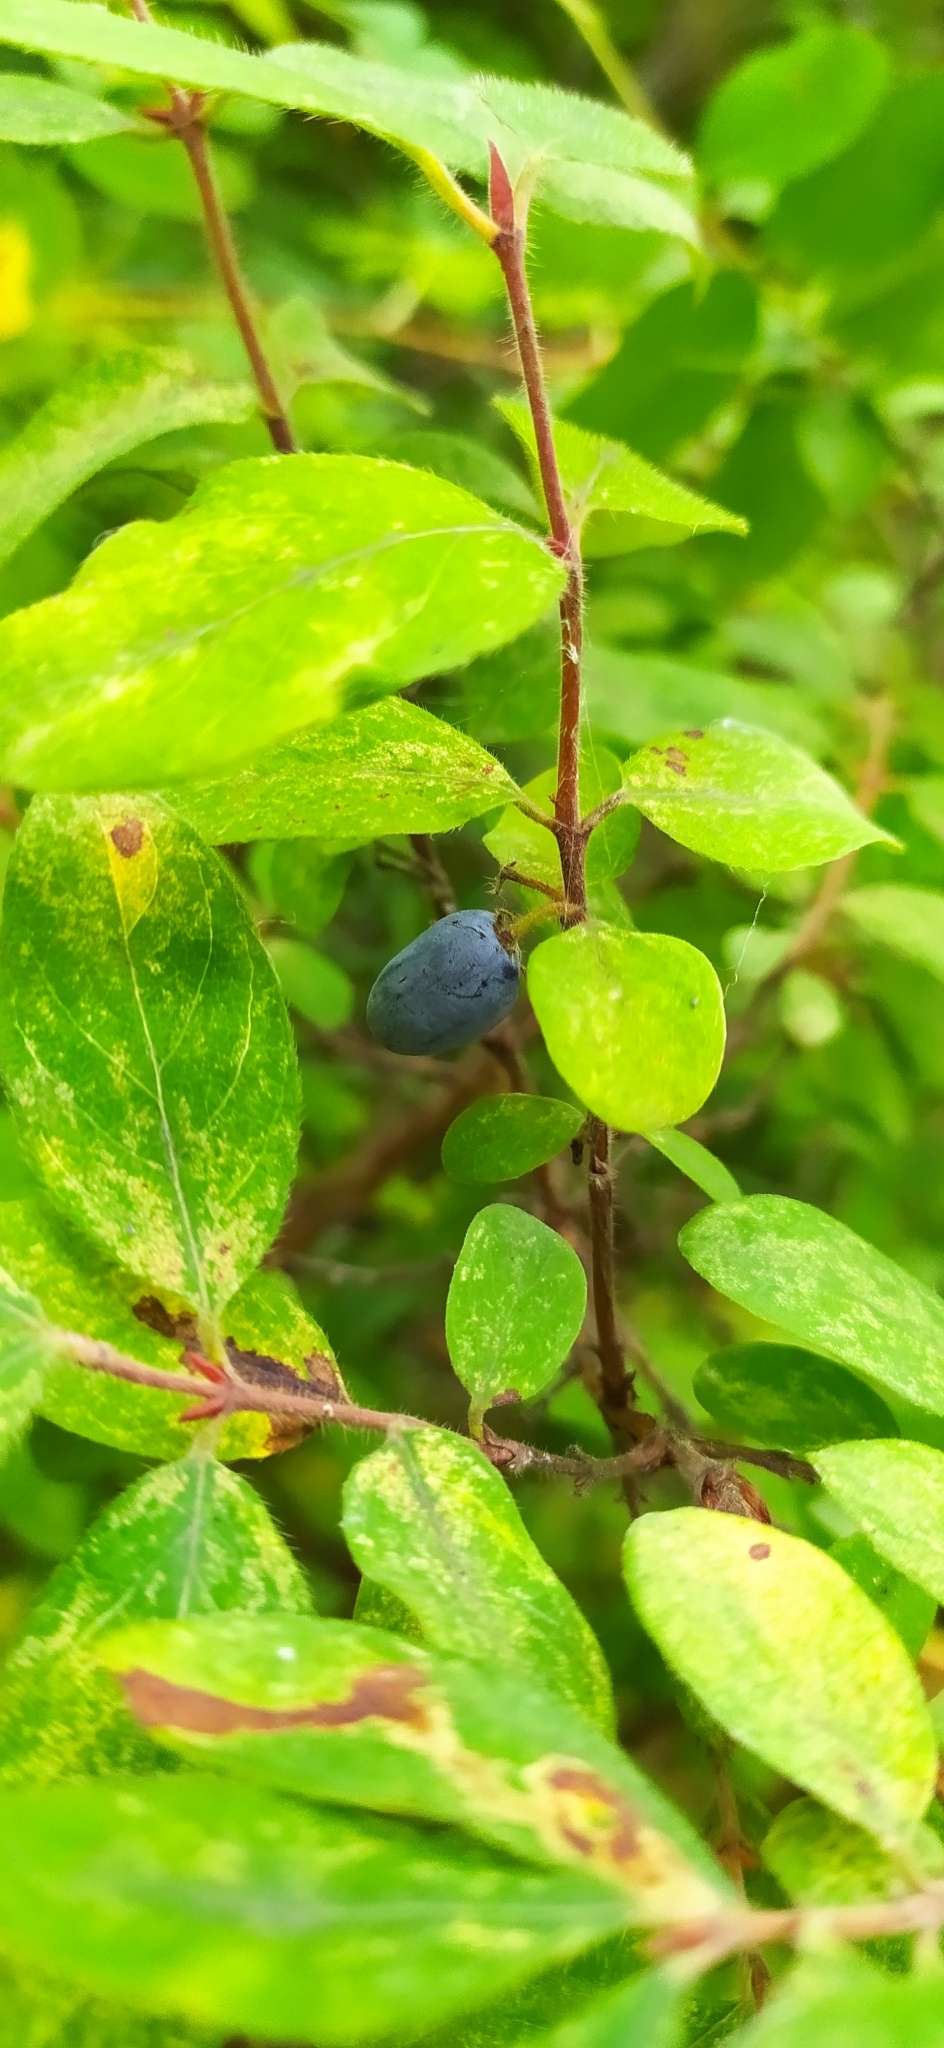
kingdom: Plantae
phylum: Tracheophyta
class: Magnoliopsida
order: Dipsacales
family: Caprifoliaceae
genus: Lonicera
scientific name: Lonicera caerulea
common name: Blue honeysuckle
